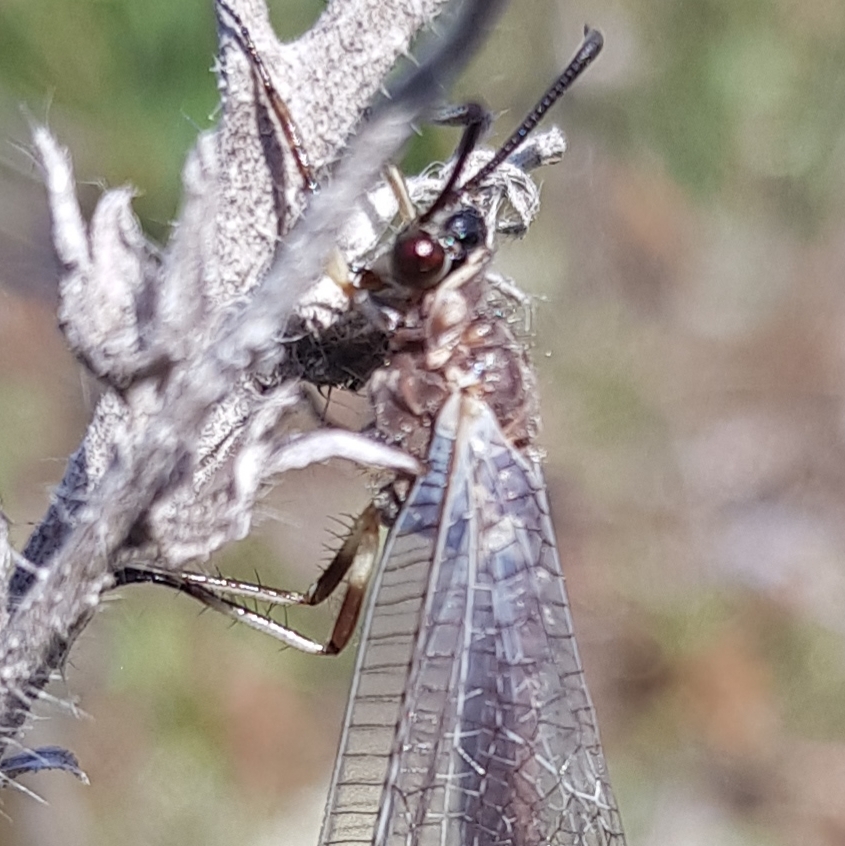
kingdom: Animalia
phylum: Arthropoda
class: Insecta
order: Neuroptera
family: Myrmeleontidae
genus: Myrmeleon
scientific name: Myrmeleon formicarius
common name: Ant-lion
